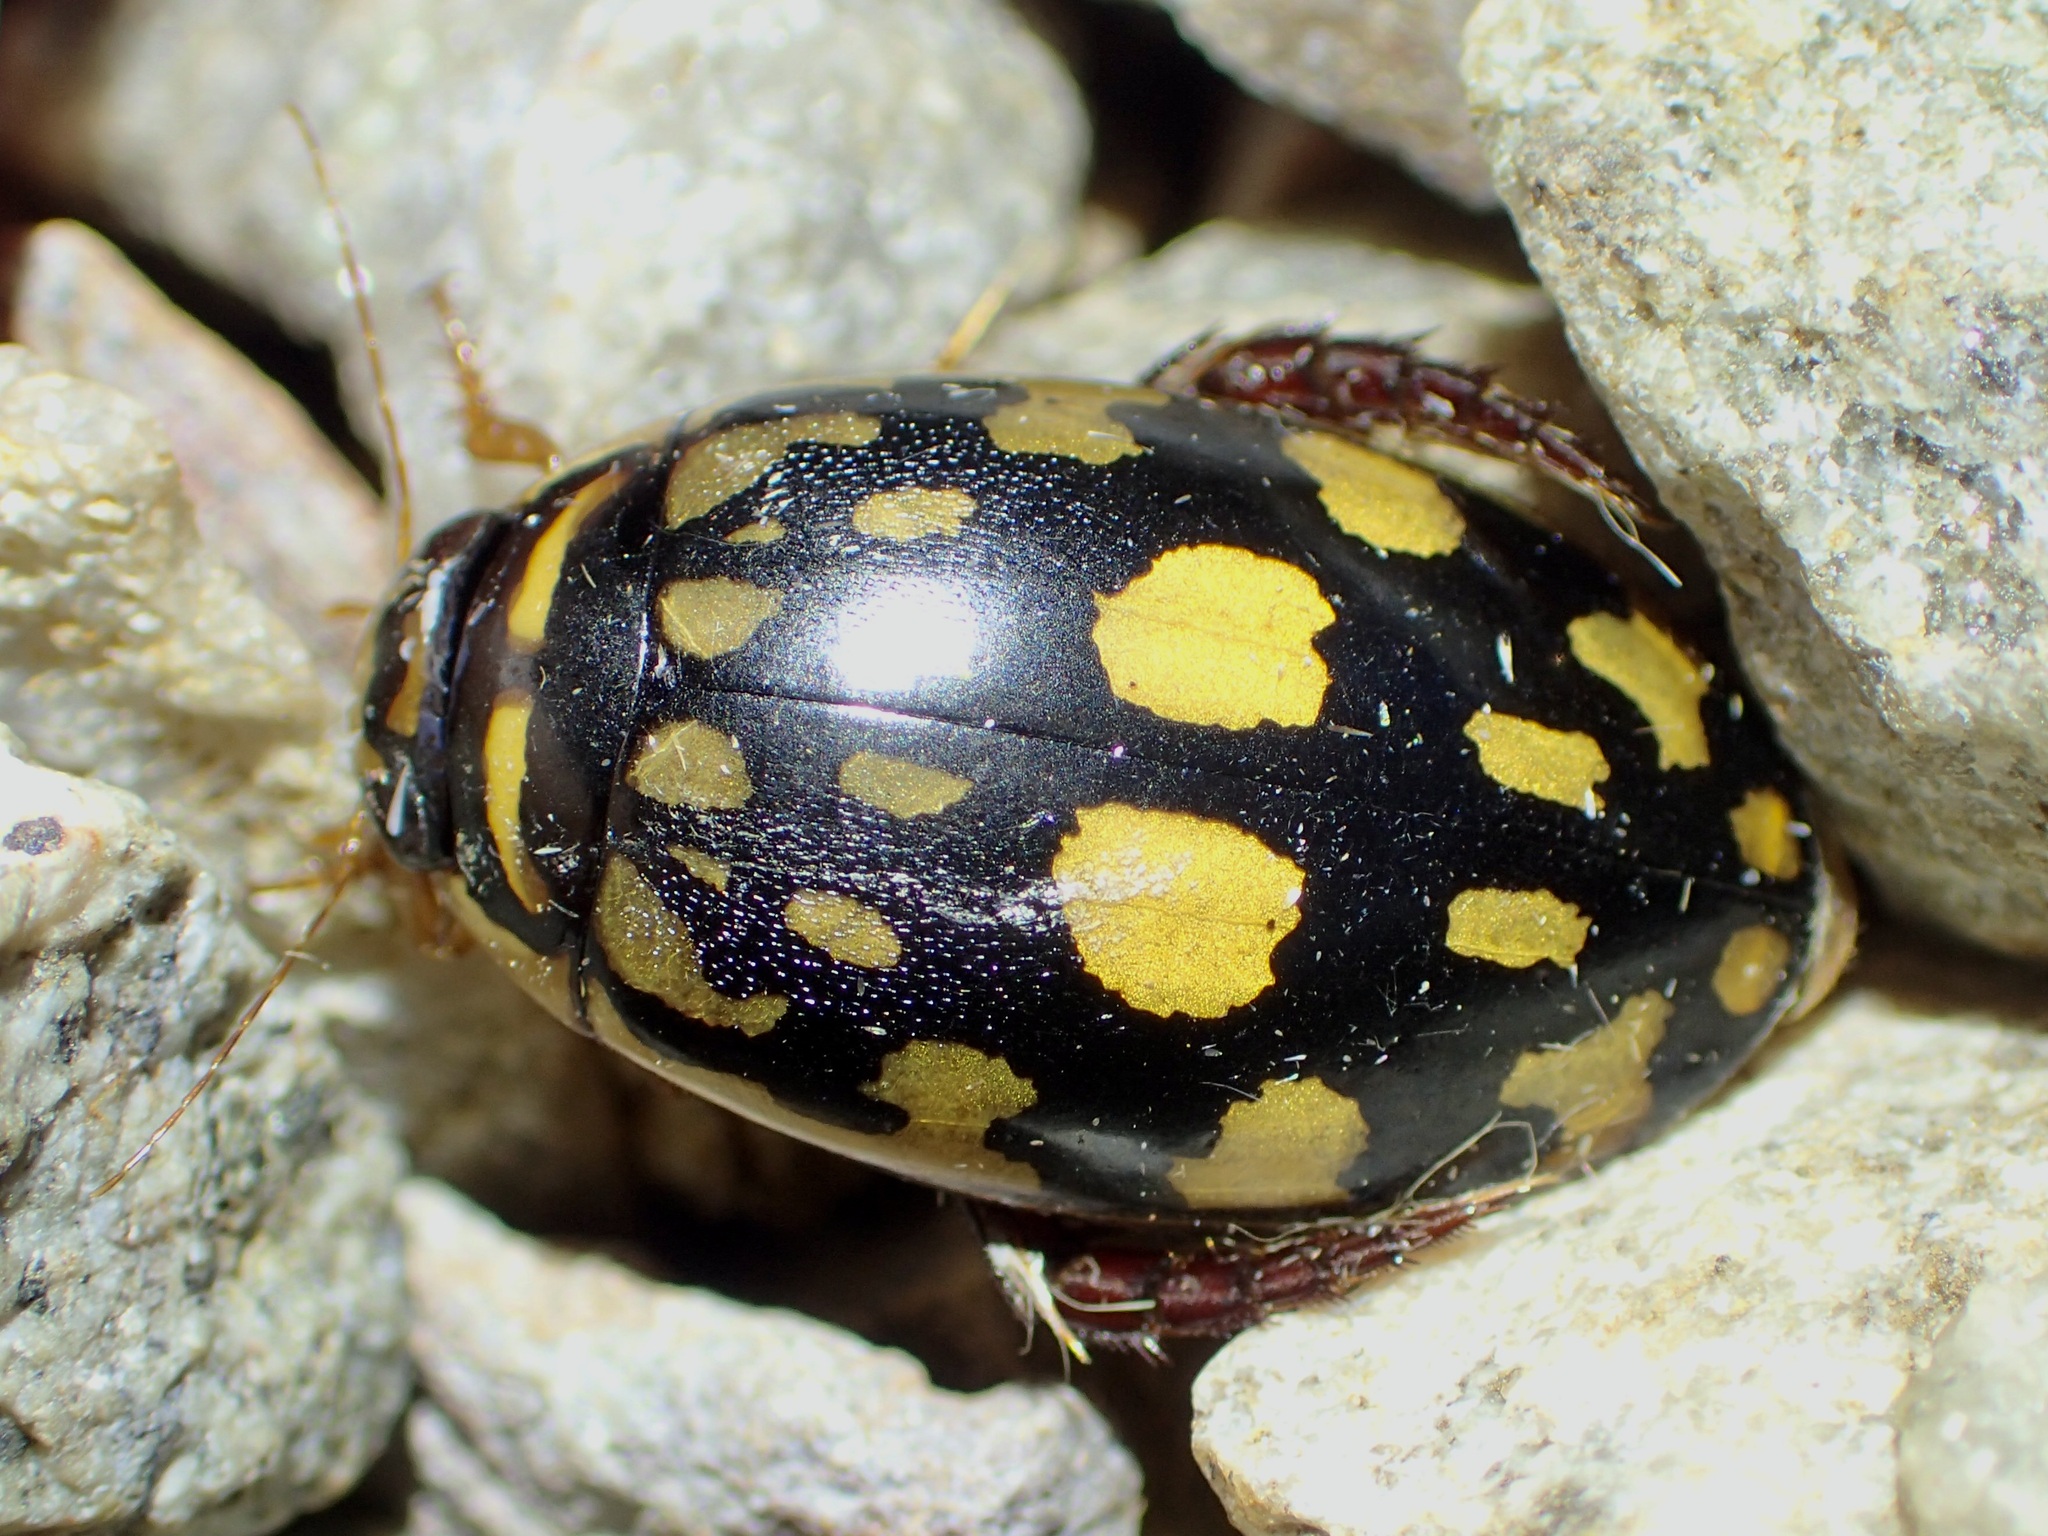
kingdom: Animalia
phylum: Arthropoda
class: Insecta
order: Coleoptera
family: Dytiscidae
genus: Thermonectus
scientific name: Thermonectus marmoratus
